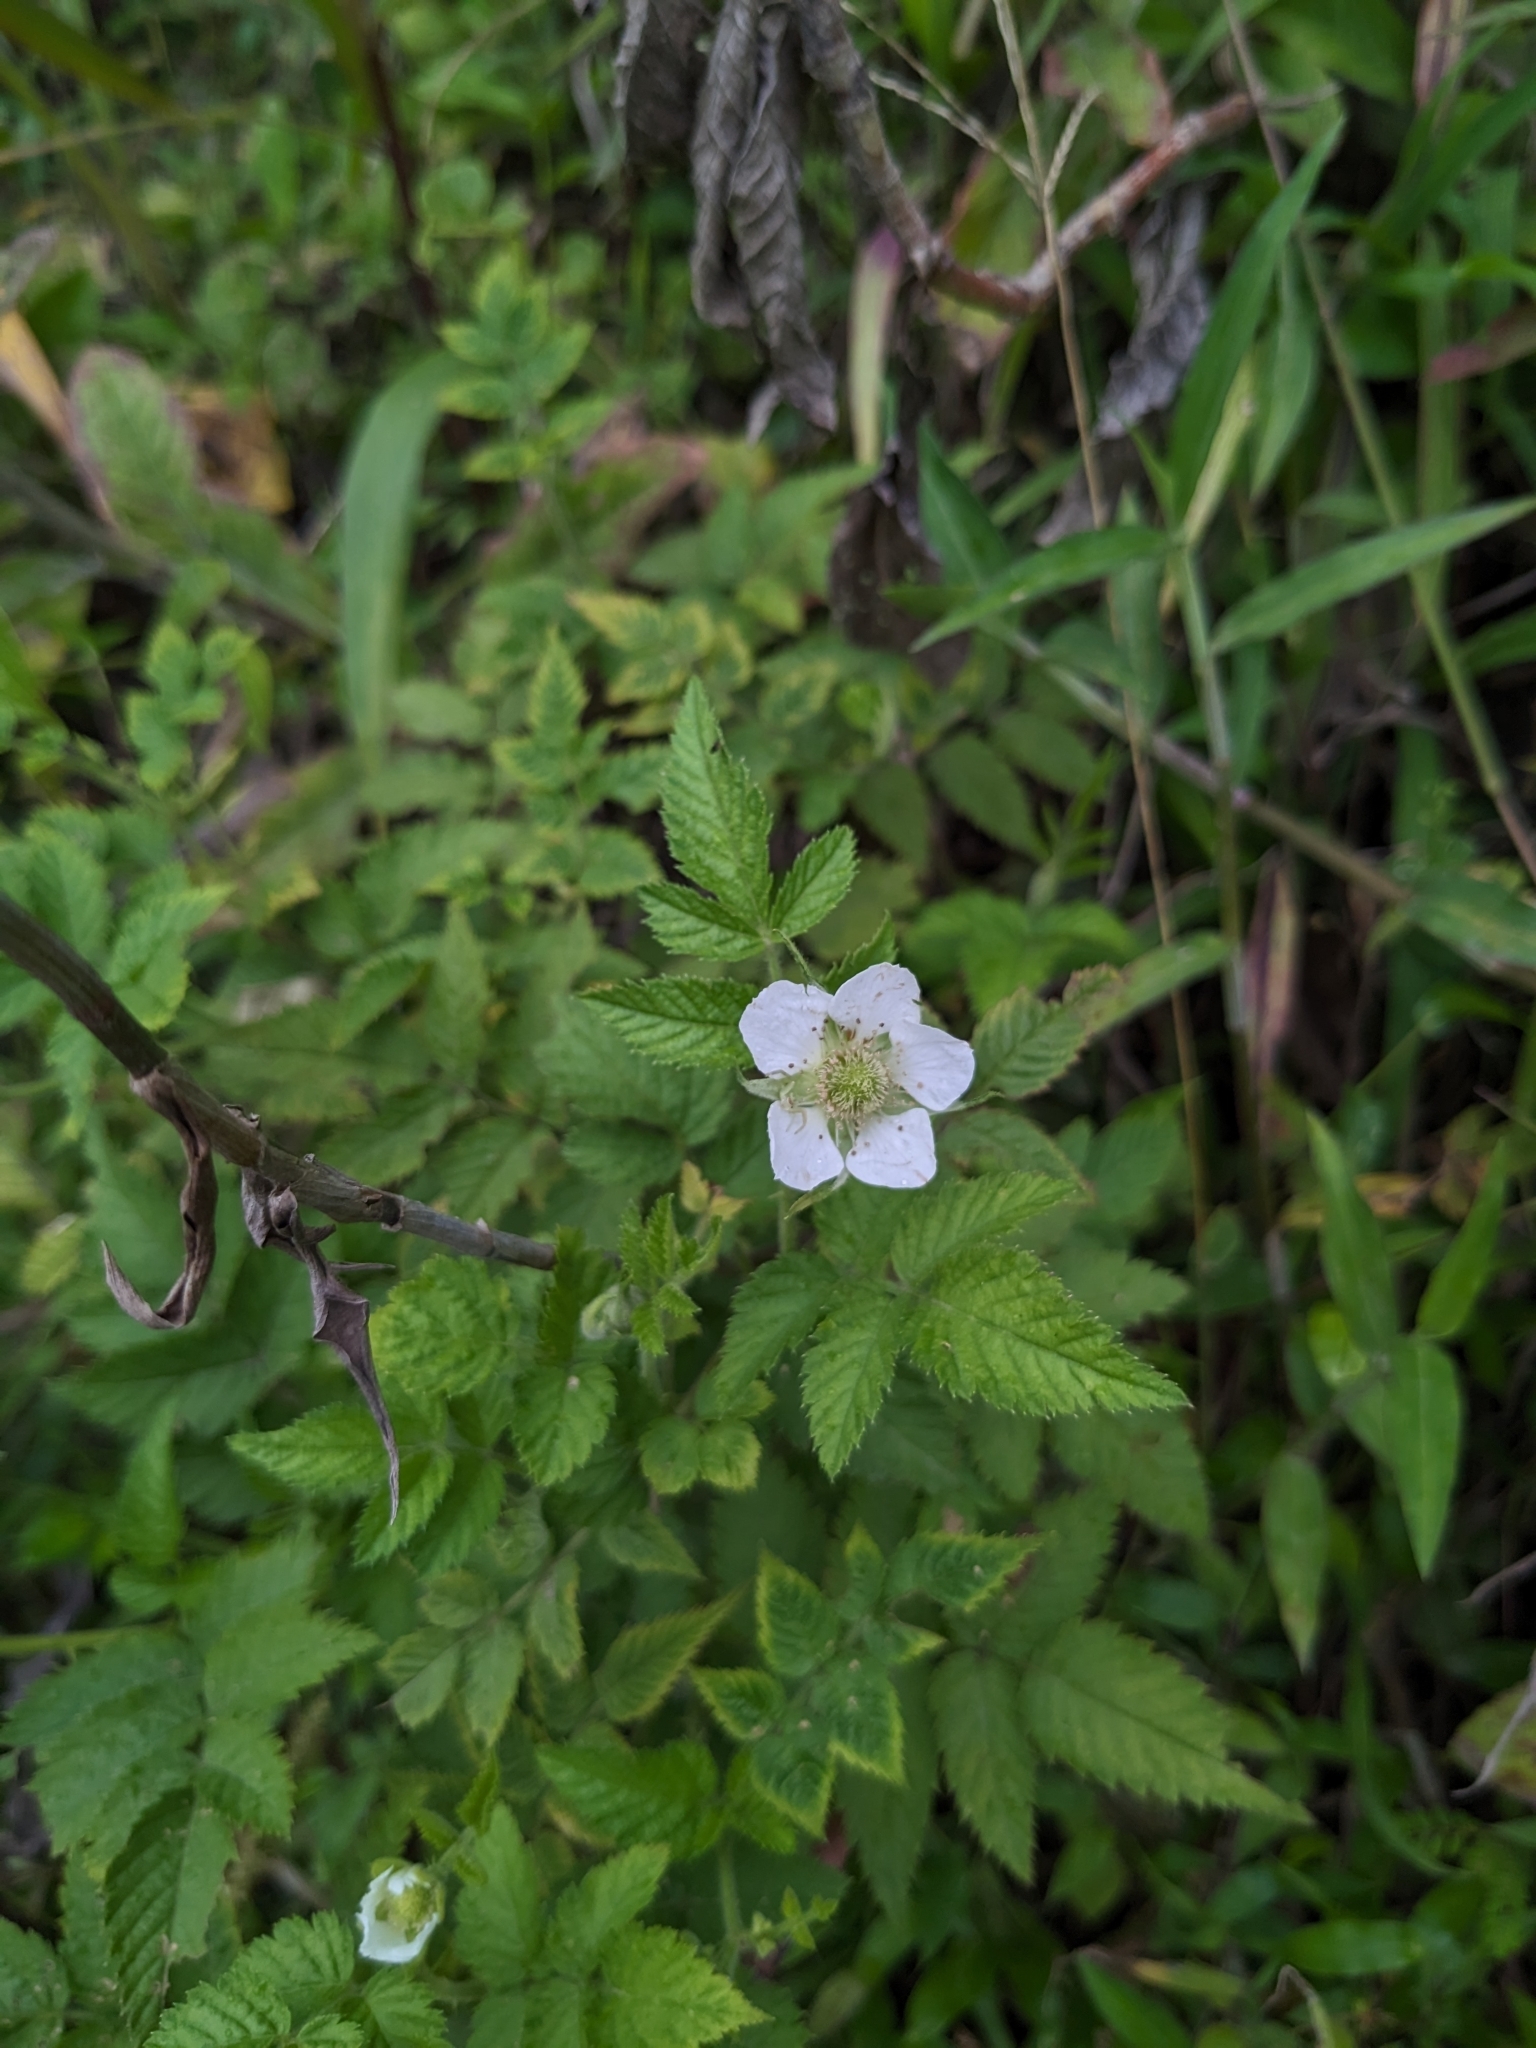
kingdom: Plantae
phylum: Tracheophyta
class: Magnoliopsida
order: Rosales
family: Rosaceae
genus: Rubus
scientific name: Rubus rosifolius
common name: Roseleaf raspberry
